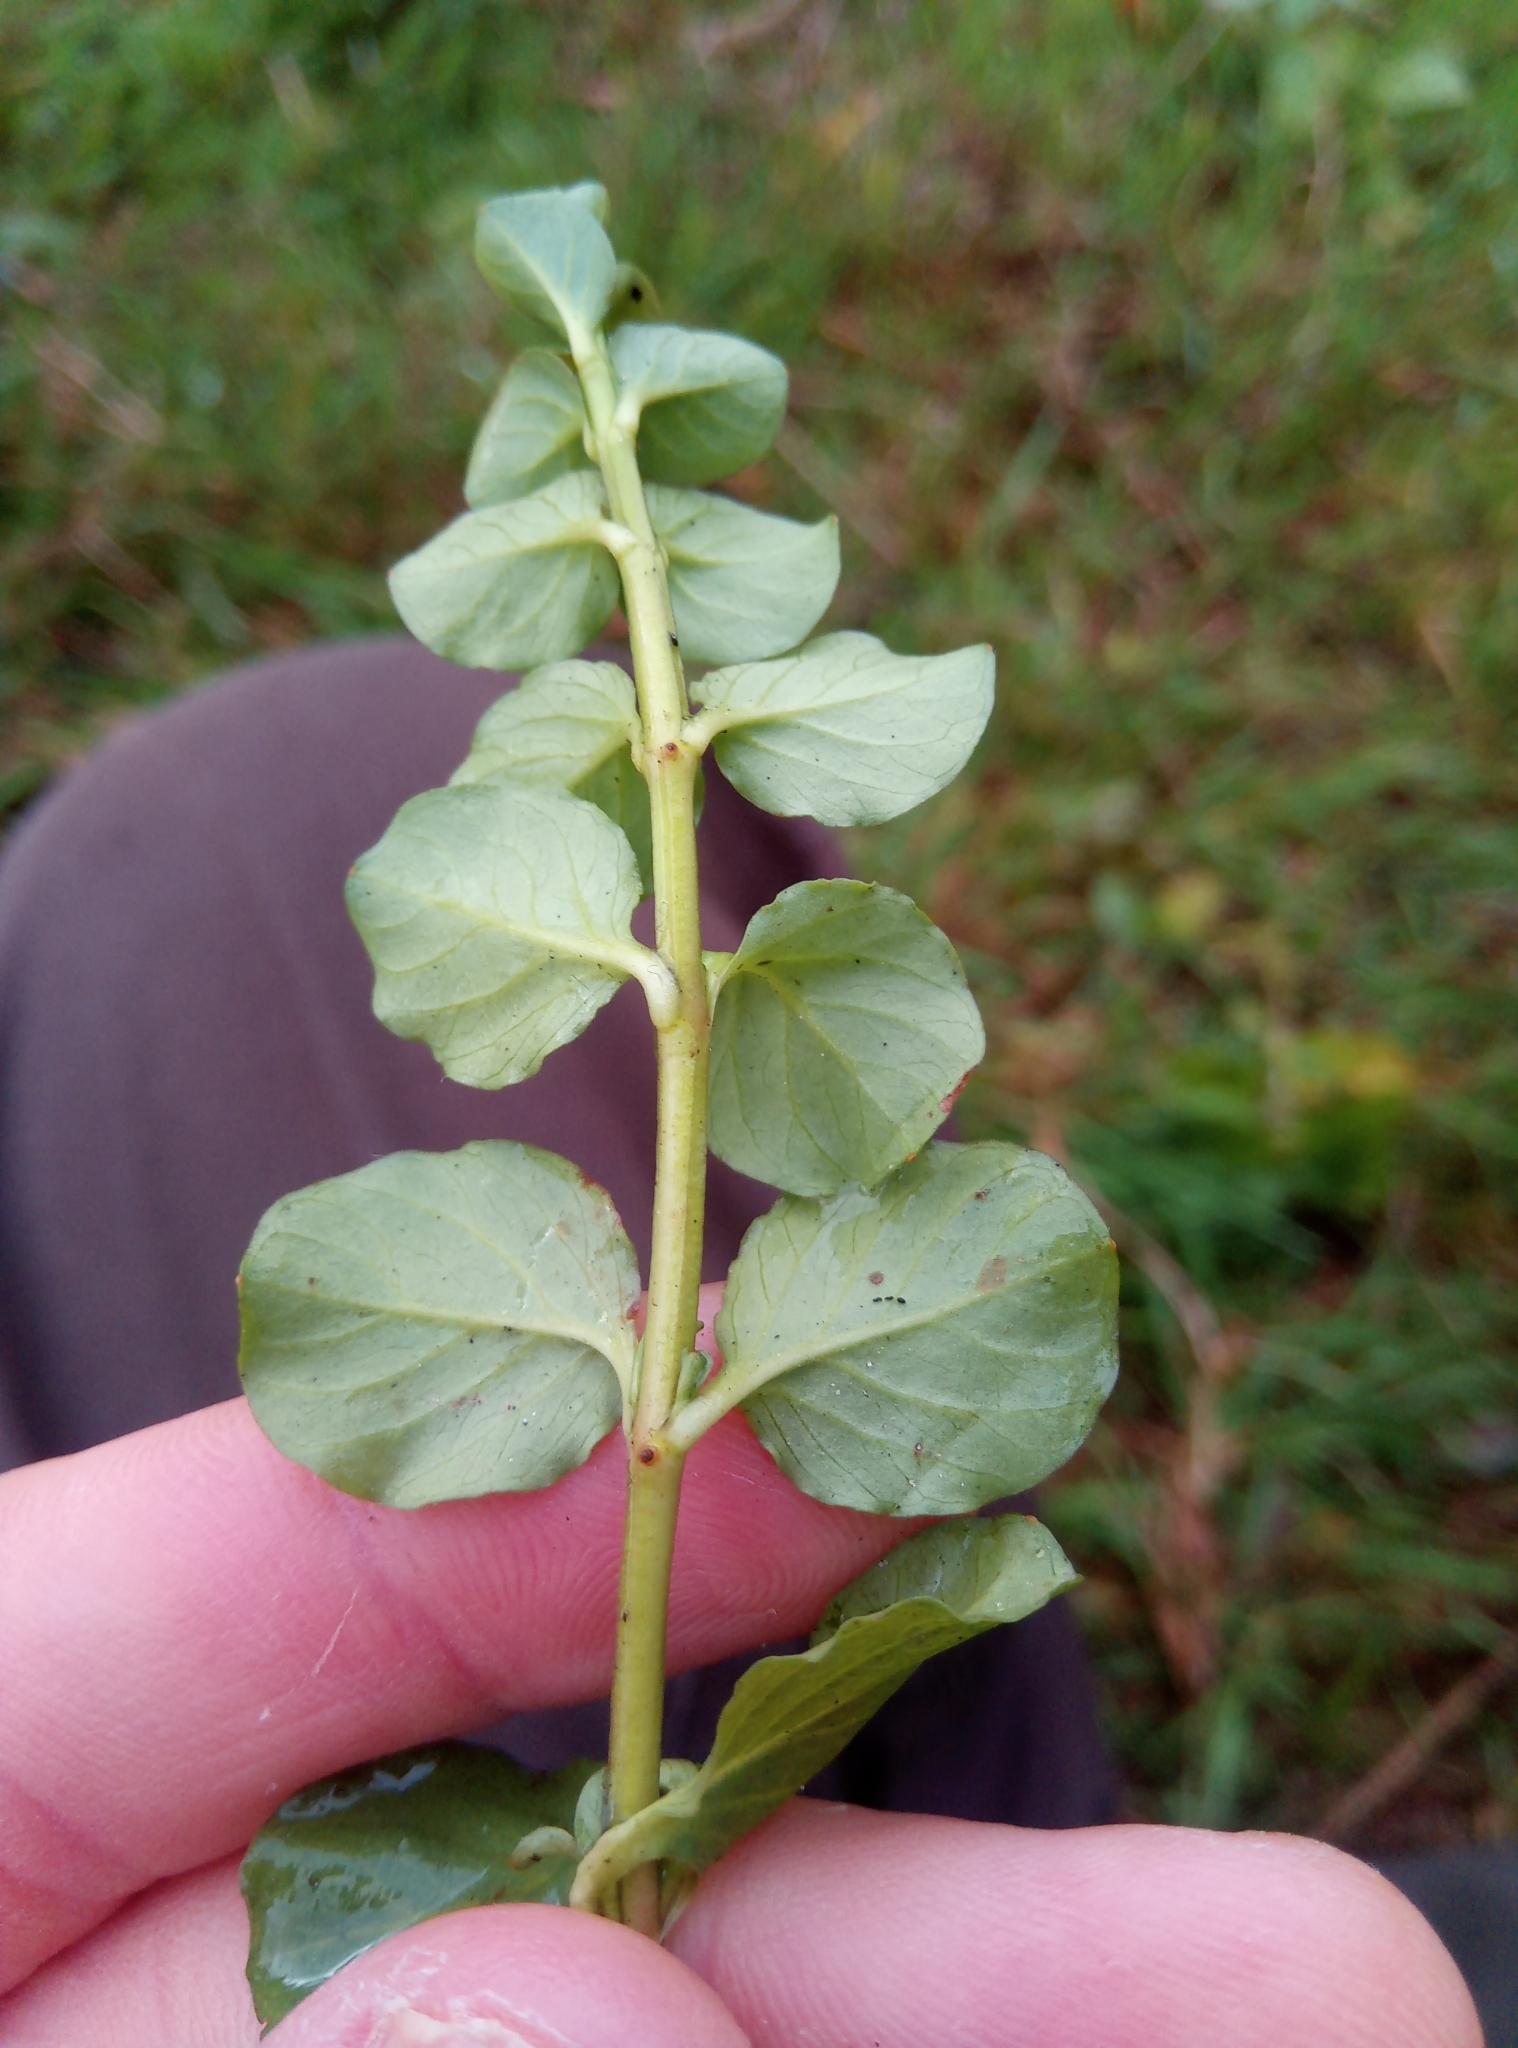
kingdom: Plantae
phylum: Tracheophyta
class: Magnoliopsida
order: Ericales
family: Primulaceae
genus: Lysimachia
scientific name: Lysimachia nummularia
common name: Moneywort
